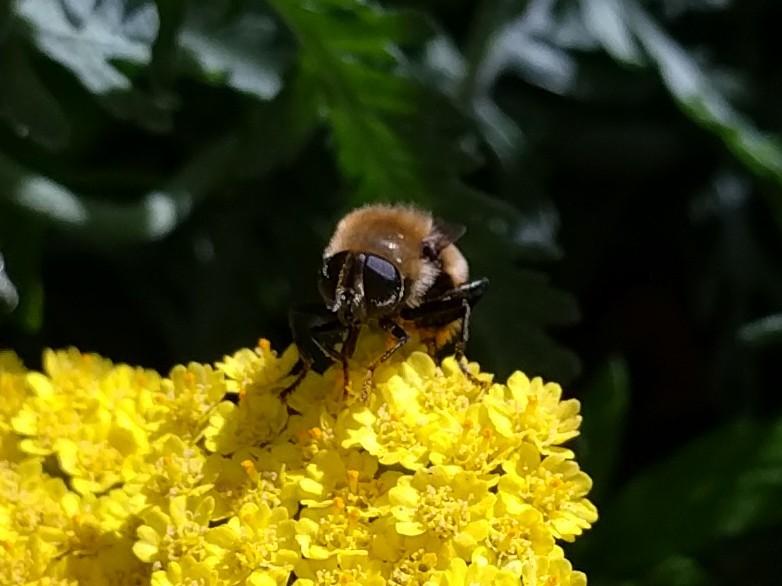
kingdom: Animalia
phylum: Arthropoda
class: Insecta
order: Diptera
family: Syrphidae
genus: Merodon
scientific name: Merodon equestris
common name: Greater bulb-fly
